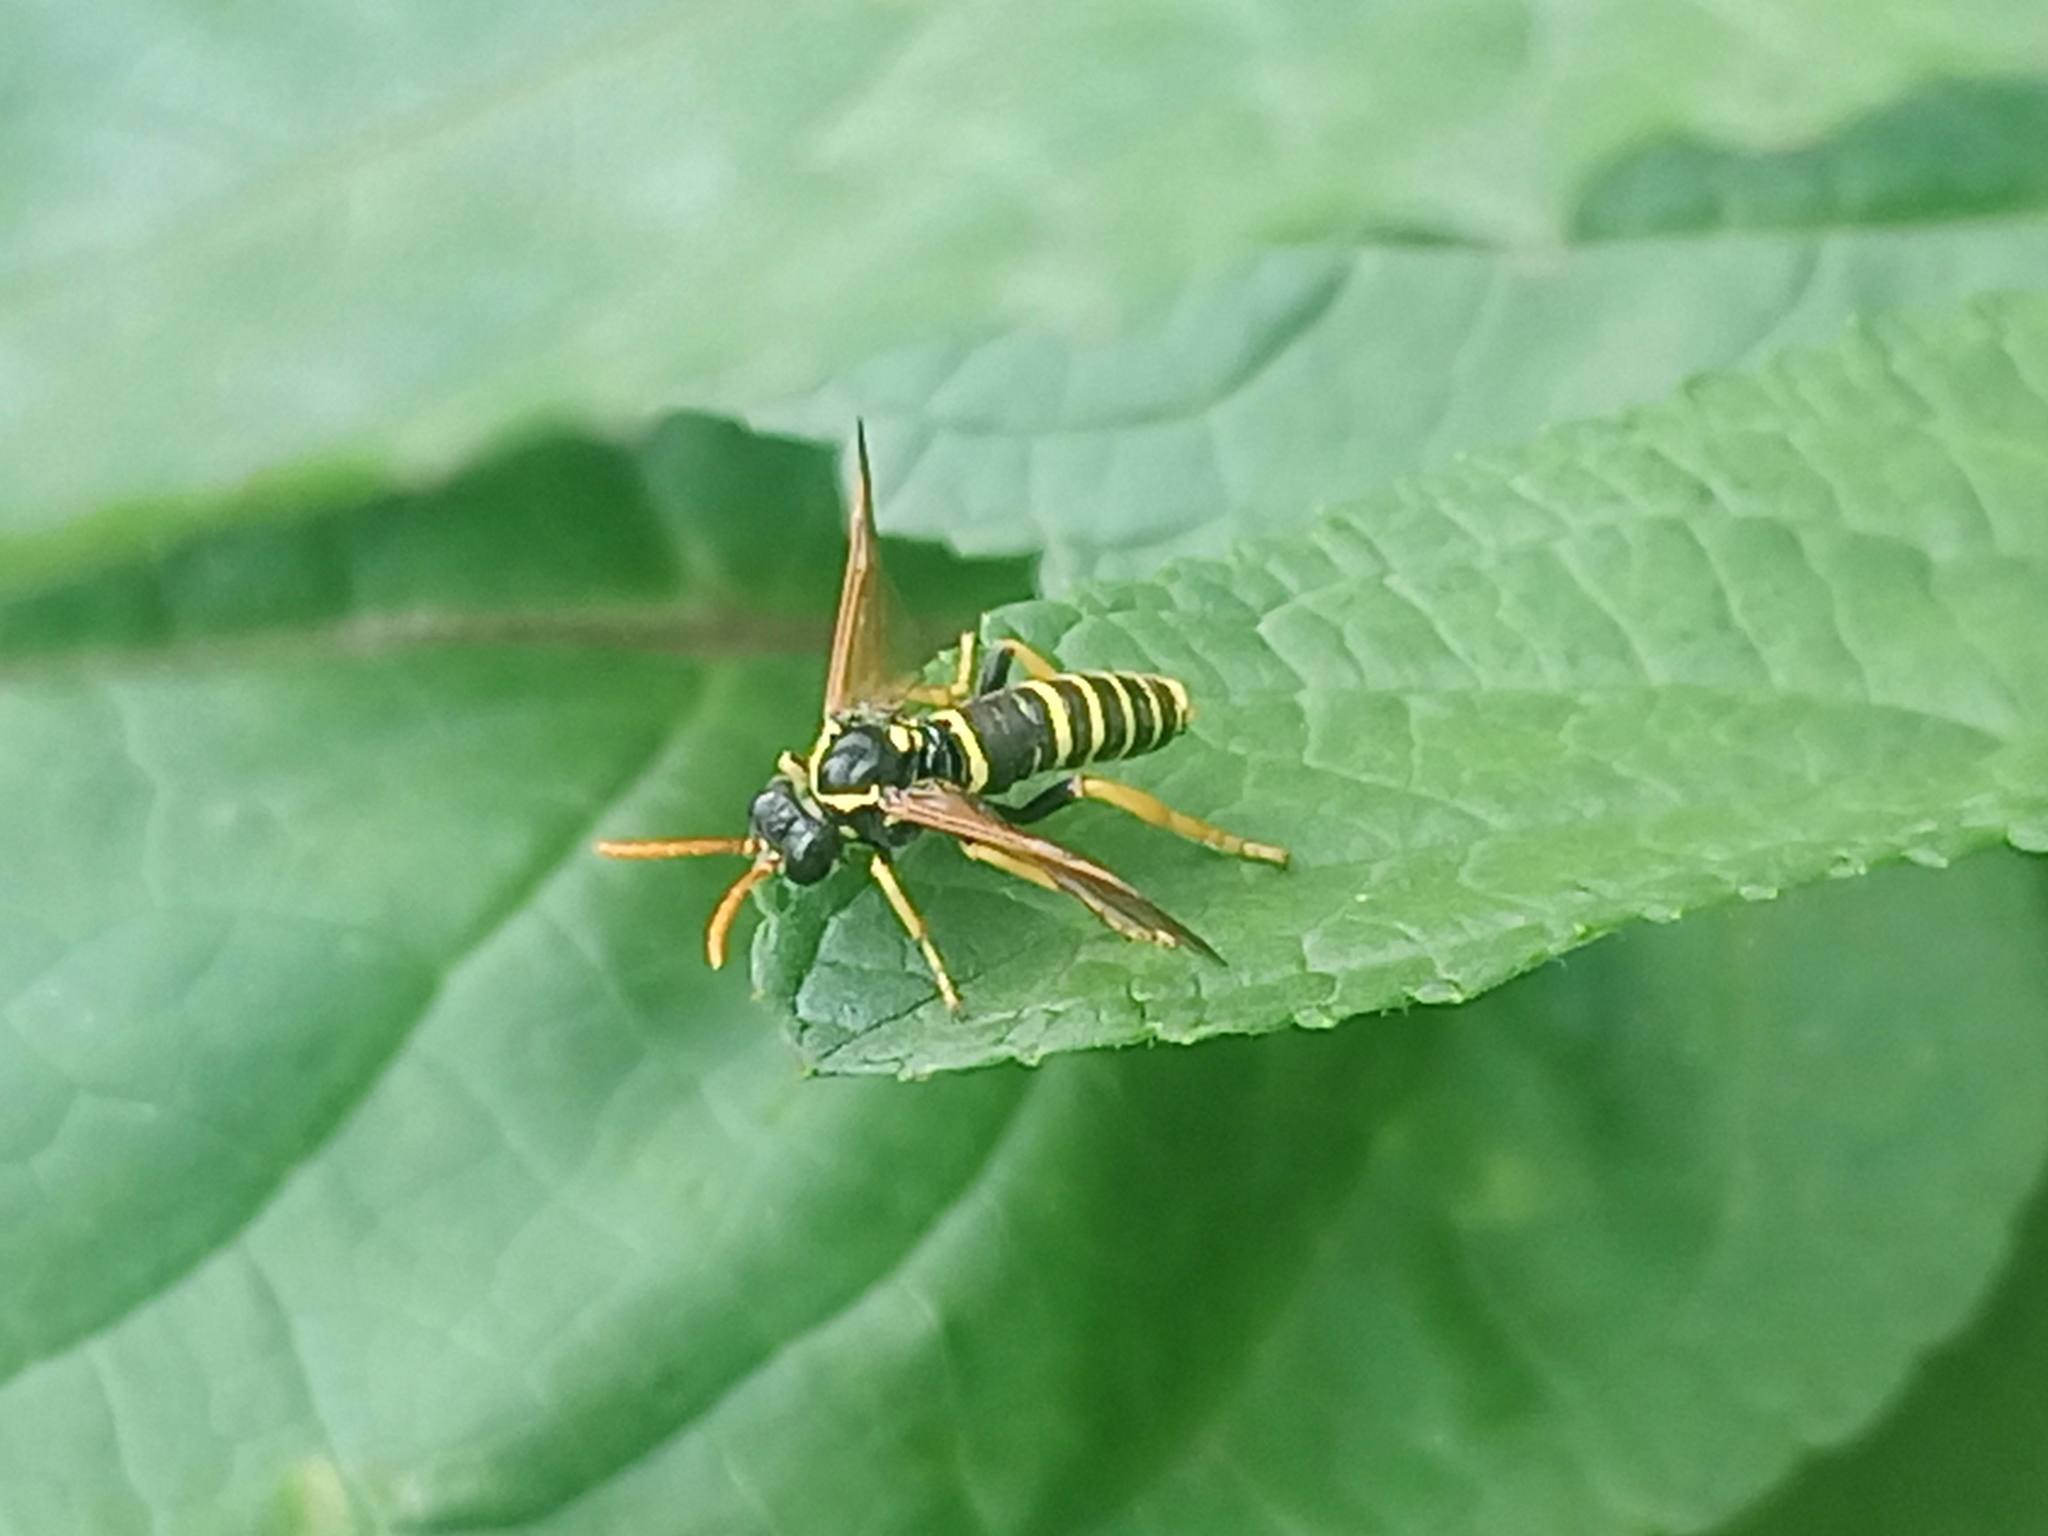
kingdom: Animalia
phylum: Arthropoda
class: Insecta
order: Hymenoptera
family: Tenthredinidae
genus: Tenthredo
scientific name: Tenthredo scrophulariae
